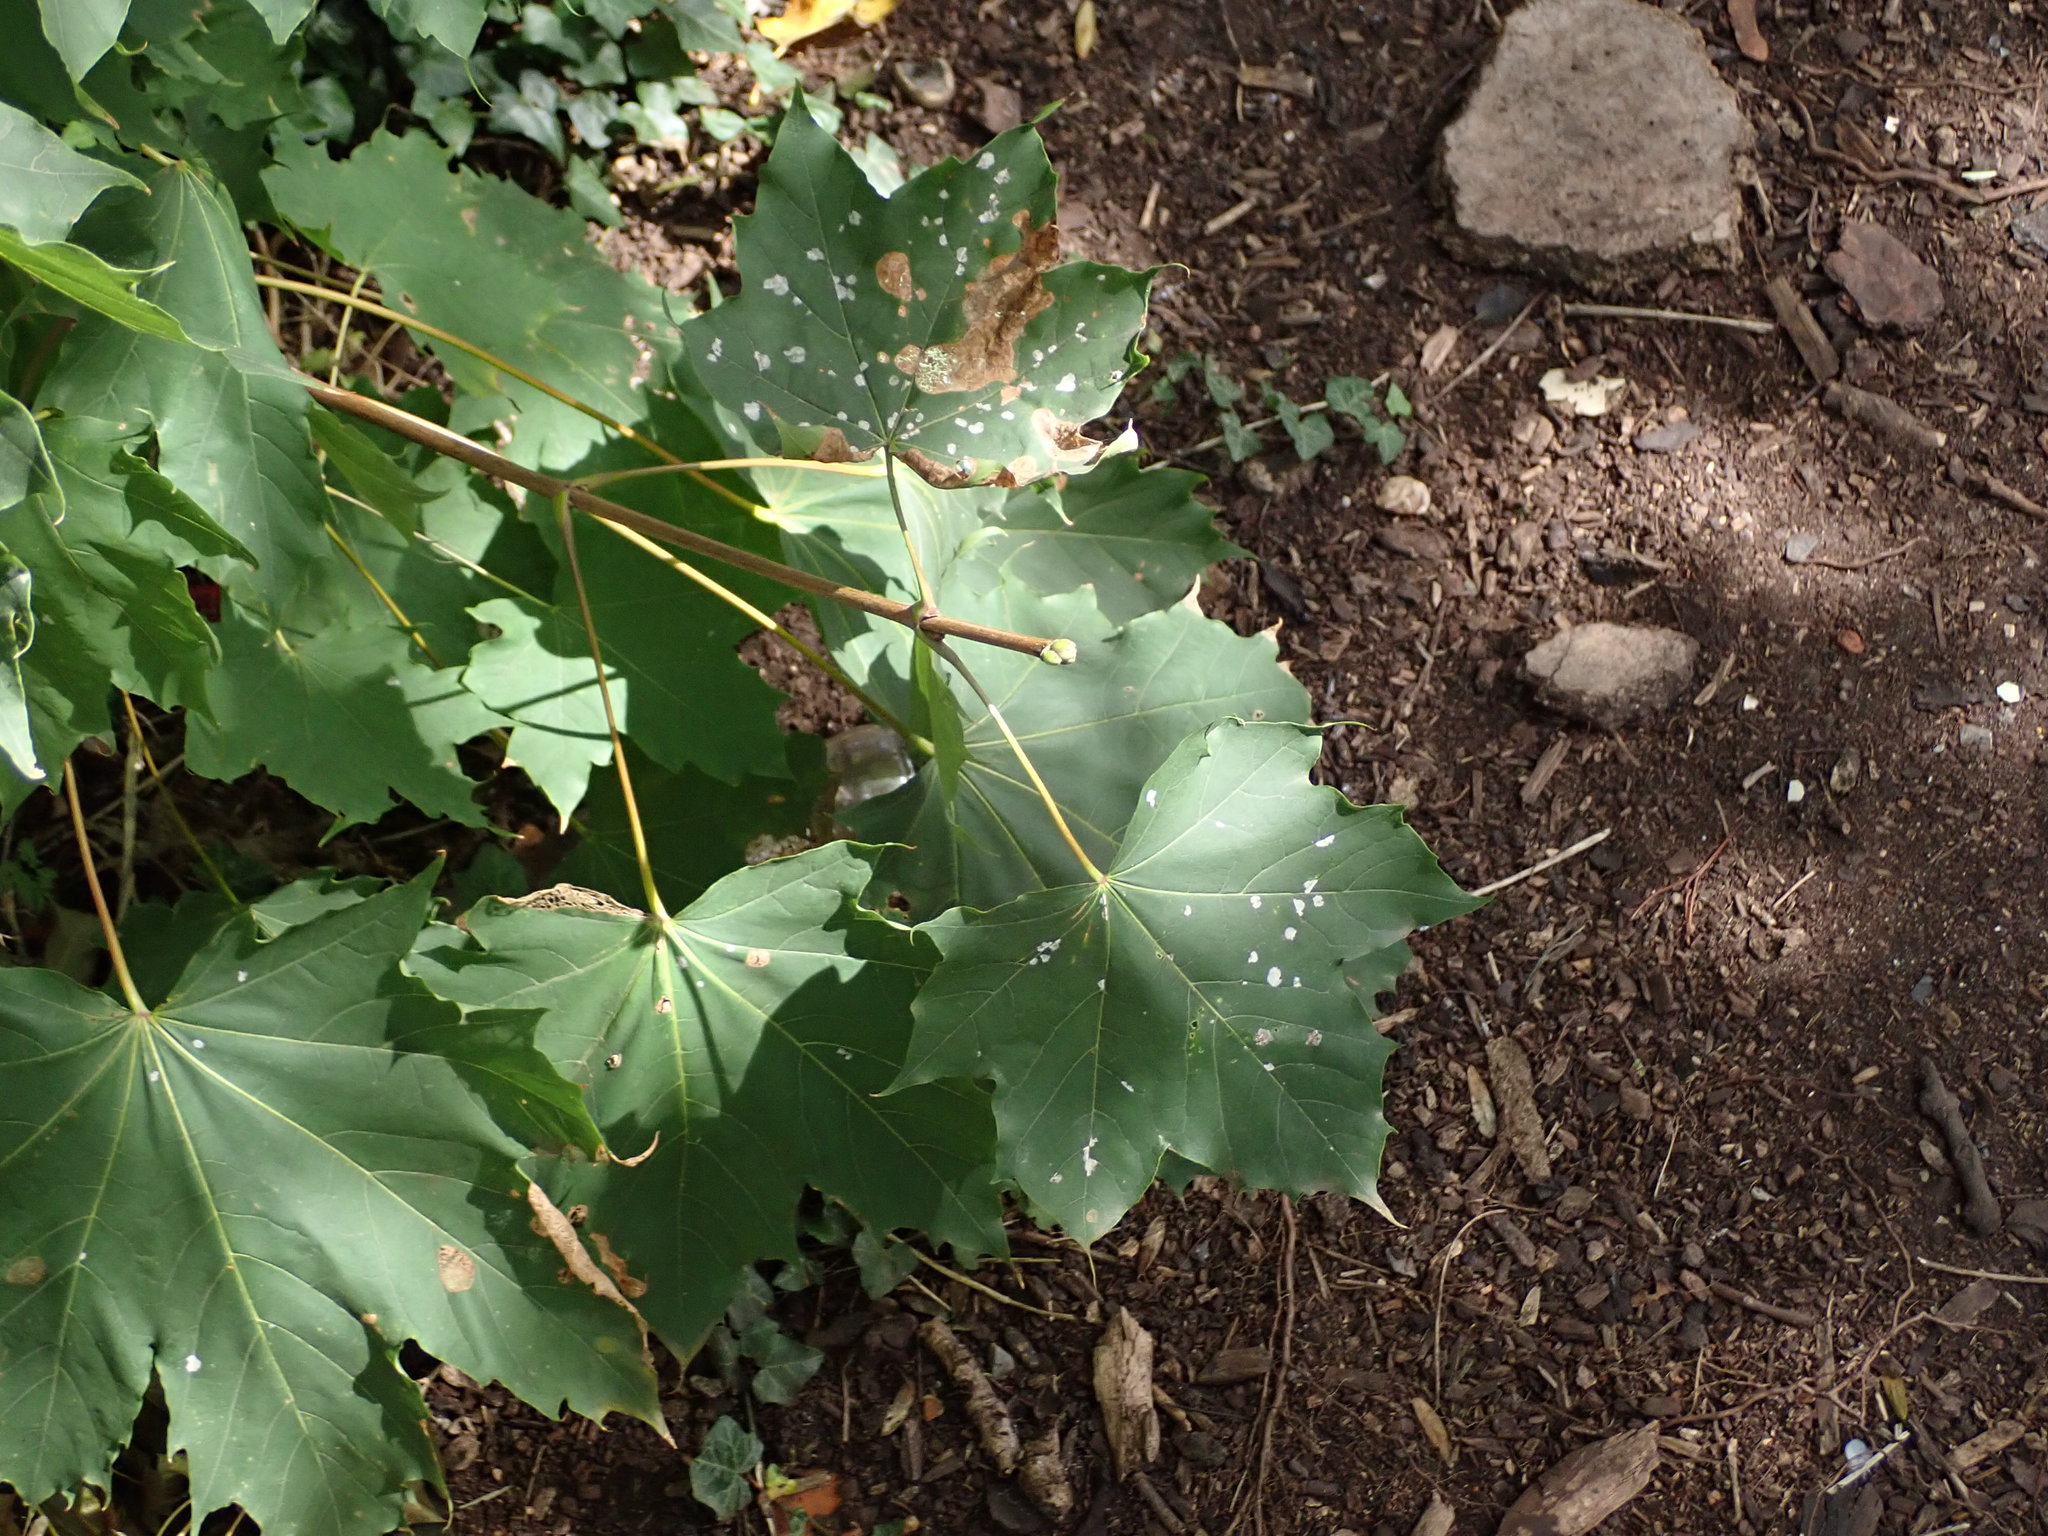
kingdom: Plantae
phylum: Tracheophyta
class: Magnoliopsida
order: Sapindales
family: Sapindaceae
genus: Acer
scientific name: Acer platanoides
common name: Norway maple
